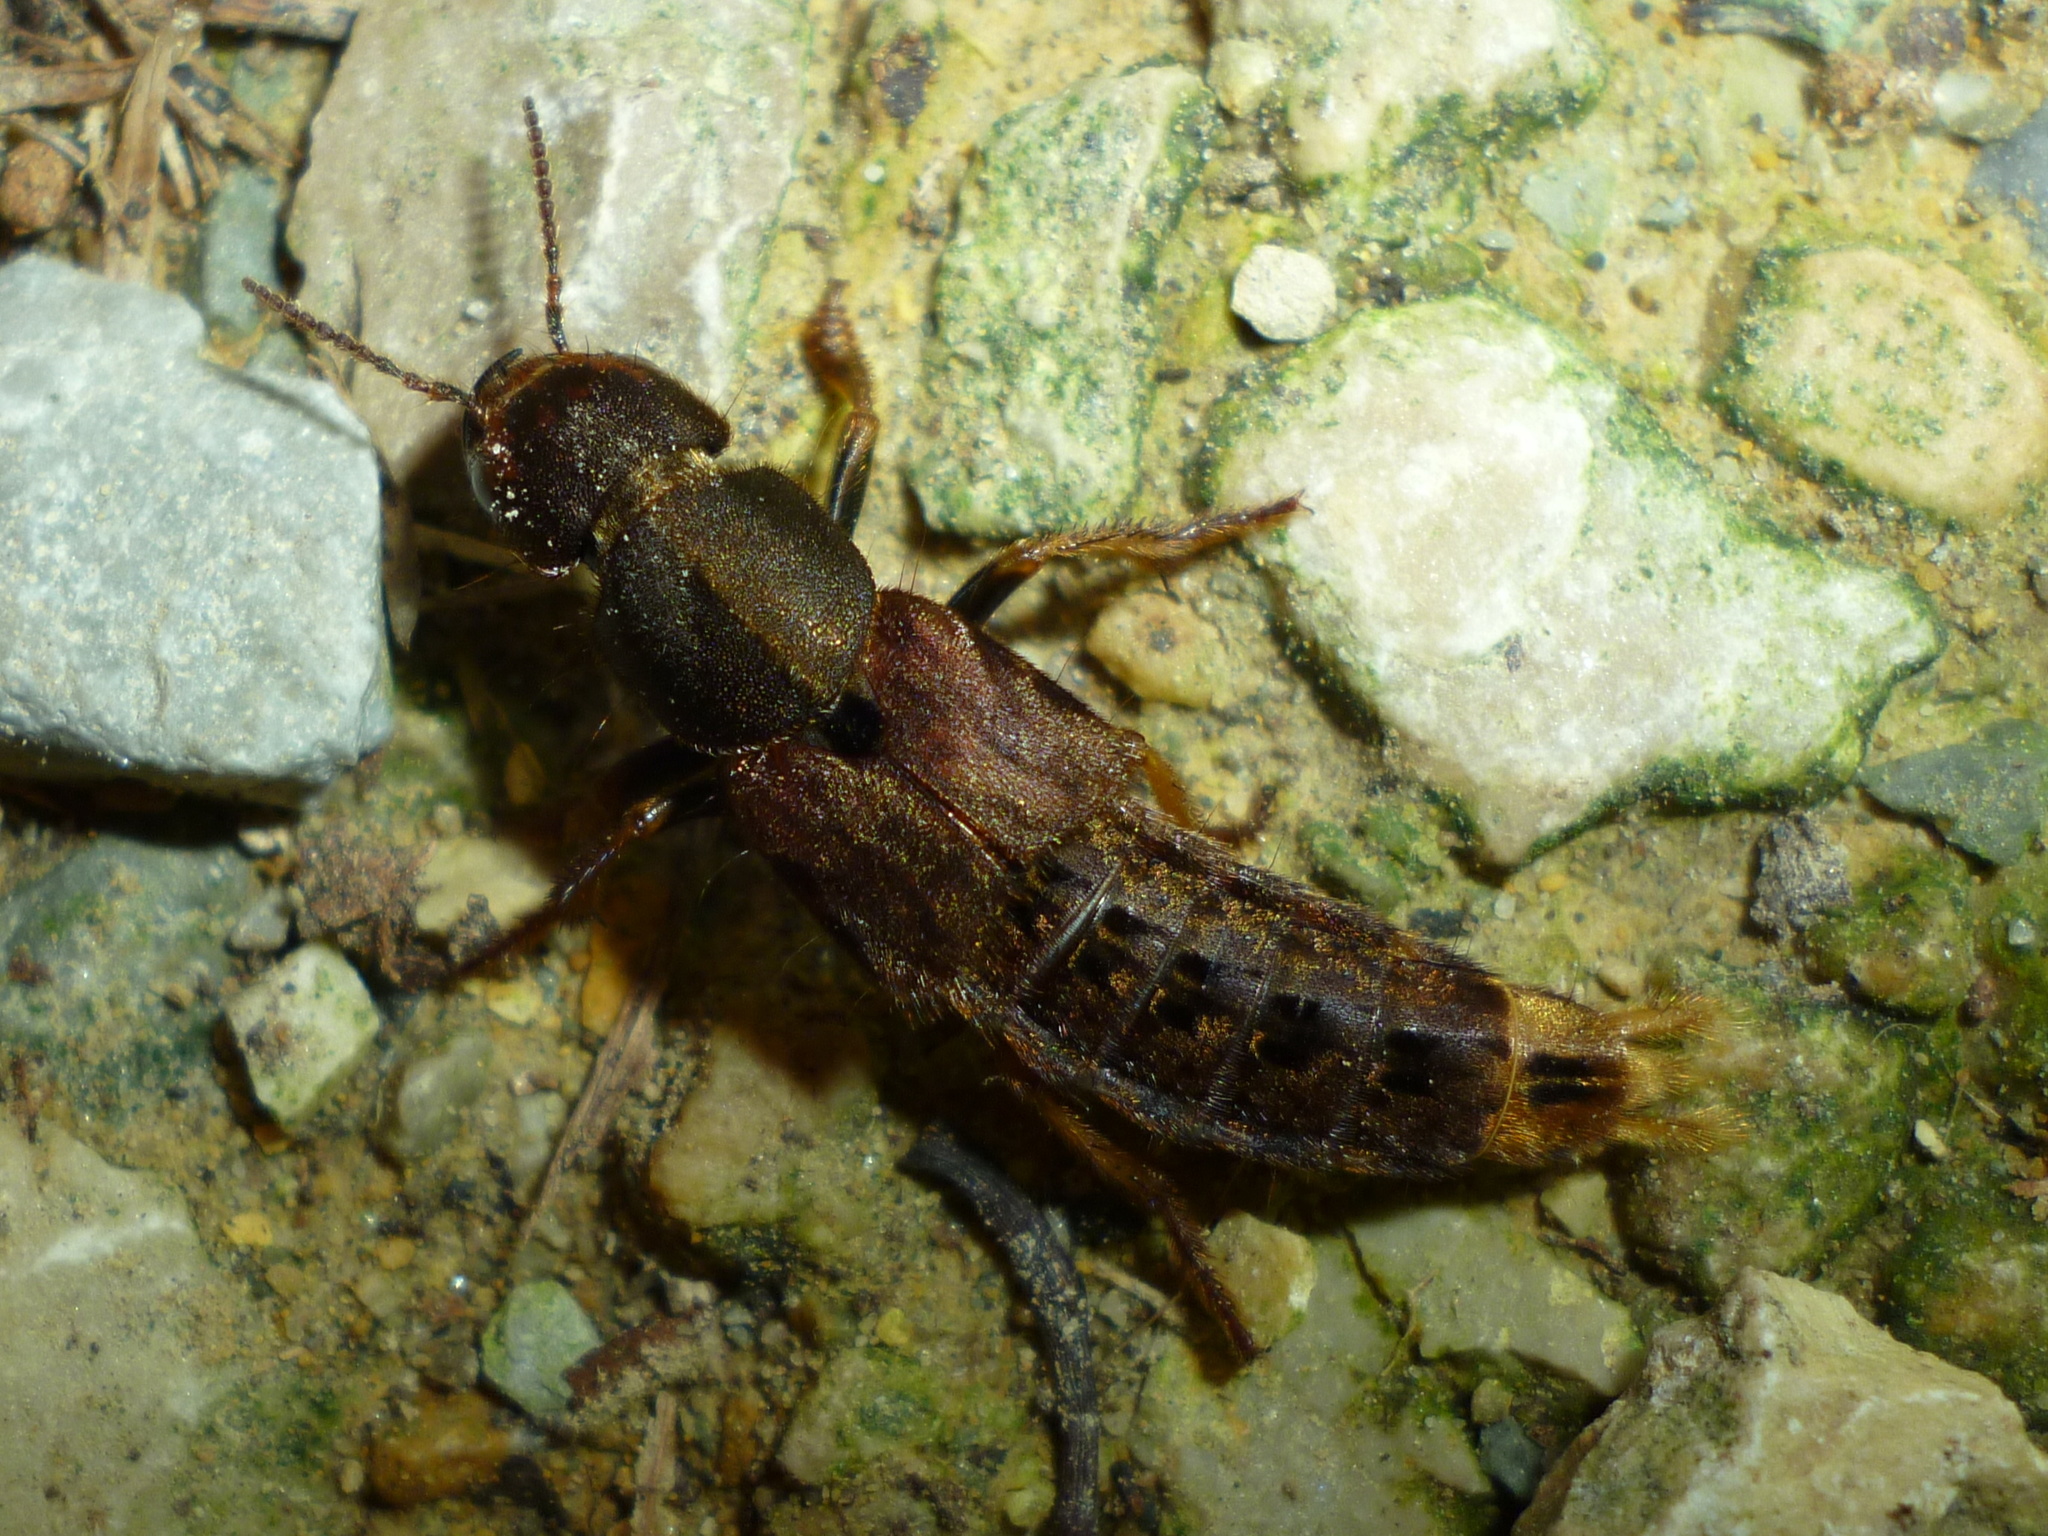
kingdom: Animalia
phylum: Arthropoda
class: Insecta
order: Coleoptera
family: Staphylinidae
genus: Platydracus
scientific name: Platydracus maculosus
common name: Brown rove beetle
